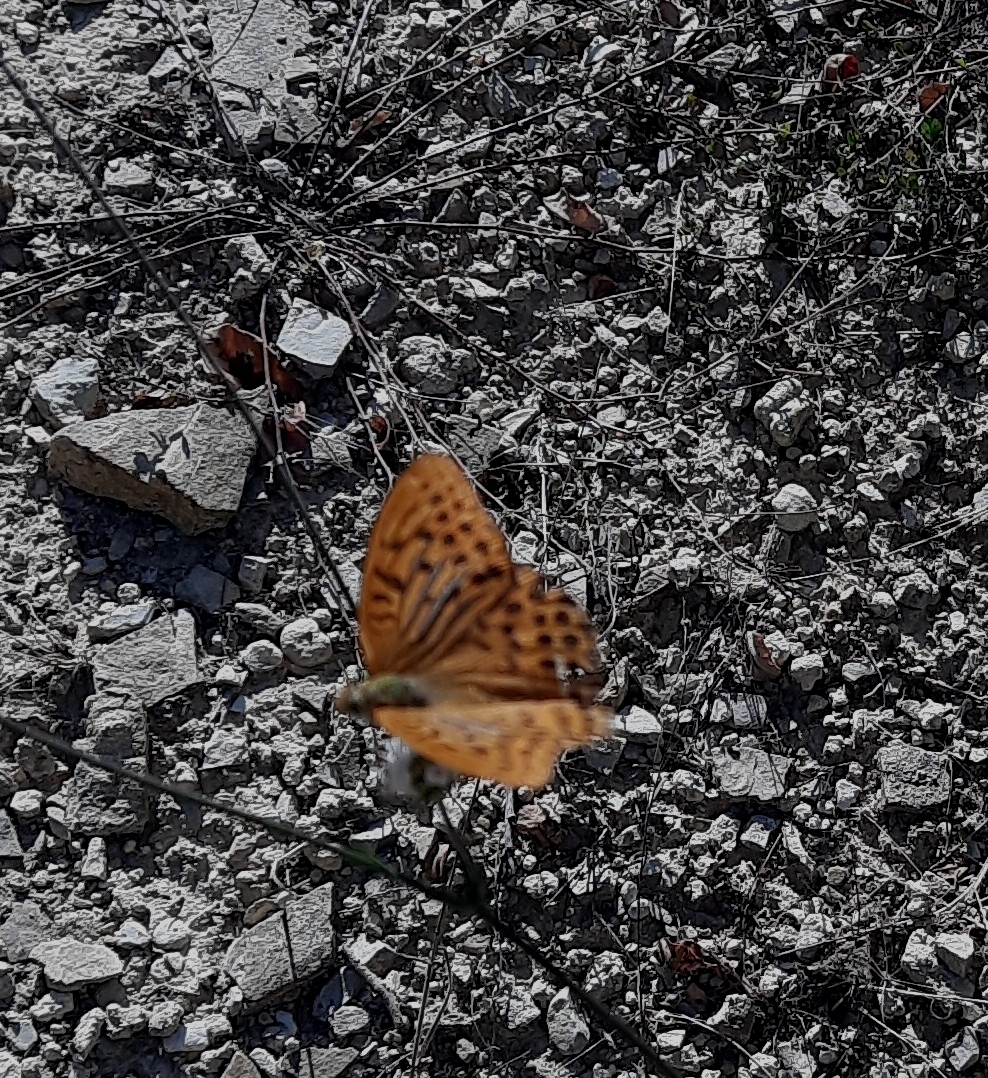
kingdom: Animalia
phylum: Arthropoda
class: Insecta
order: Lepidoptera
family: Nymphalidae
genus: Argynnis
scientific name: Argynnis paphia
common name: Silver-washed fritillary
